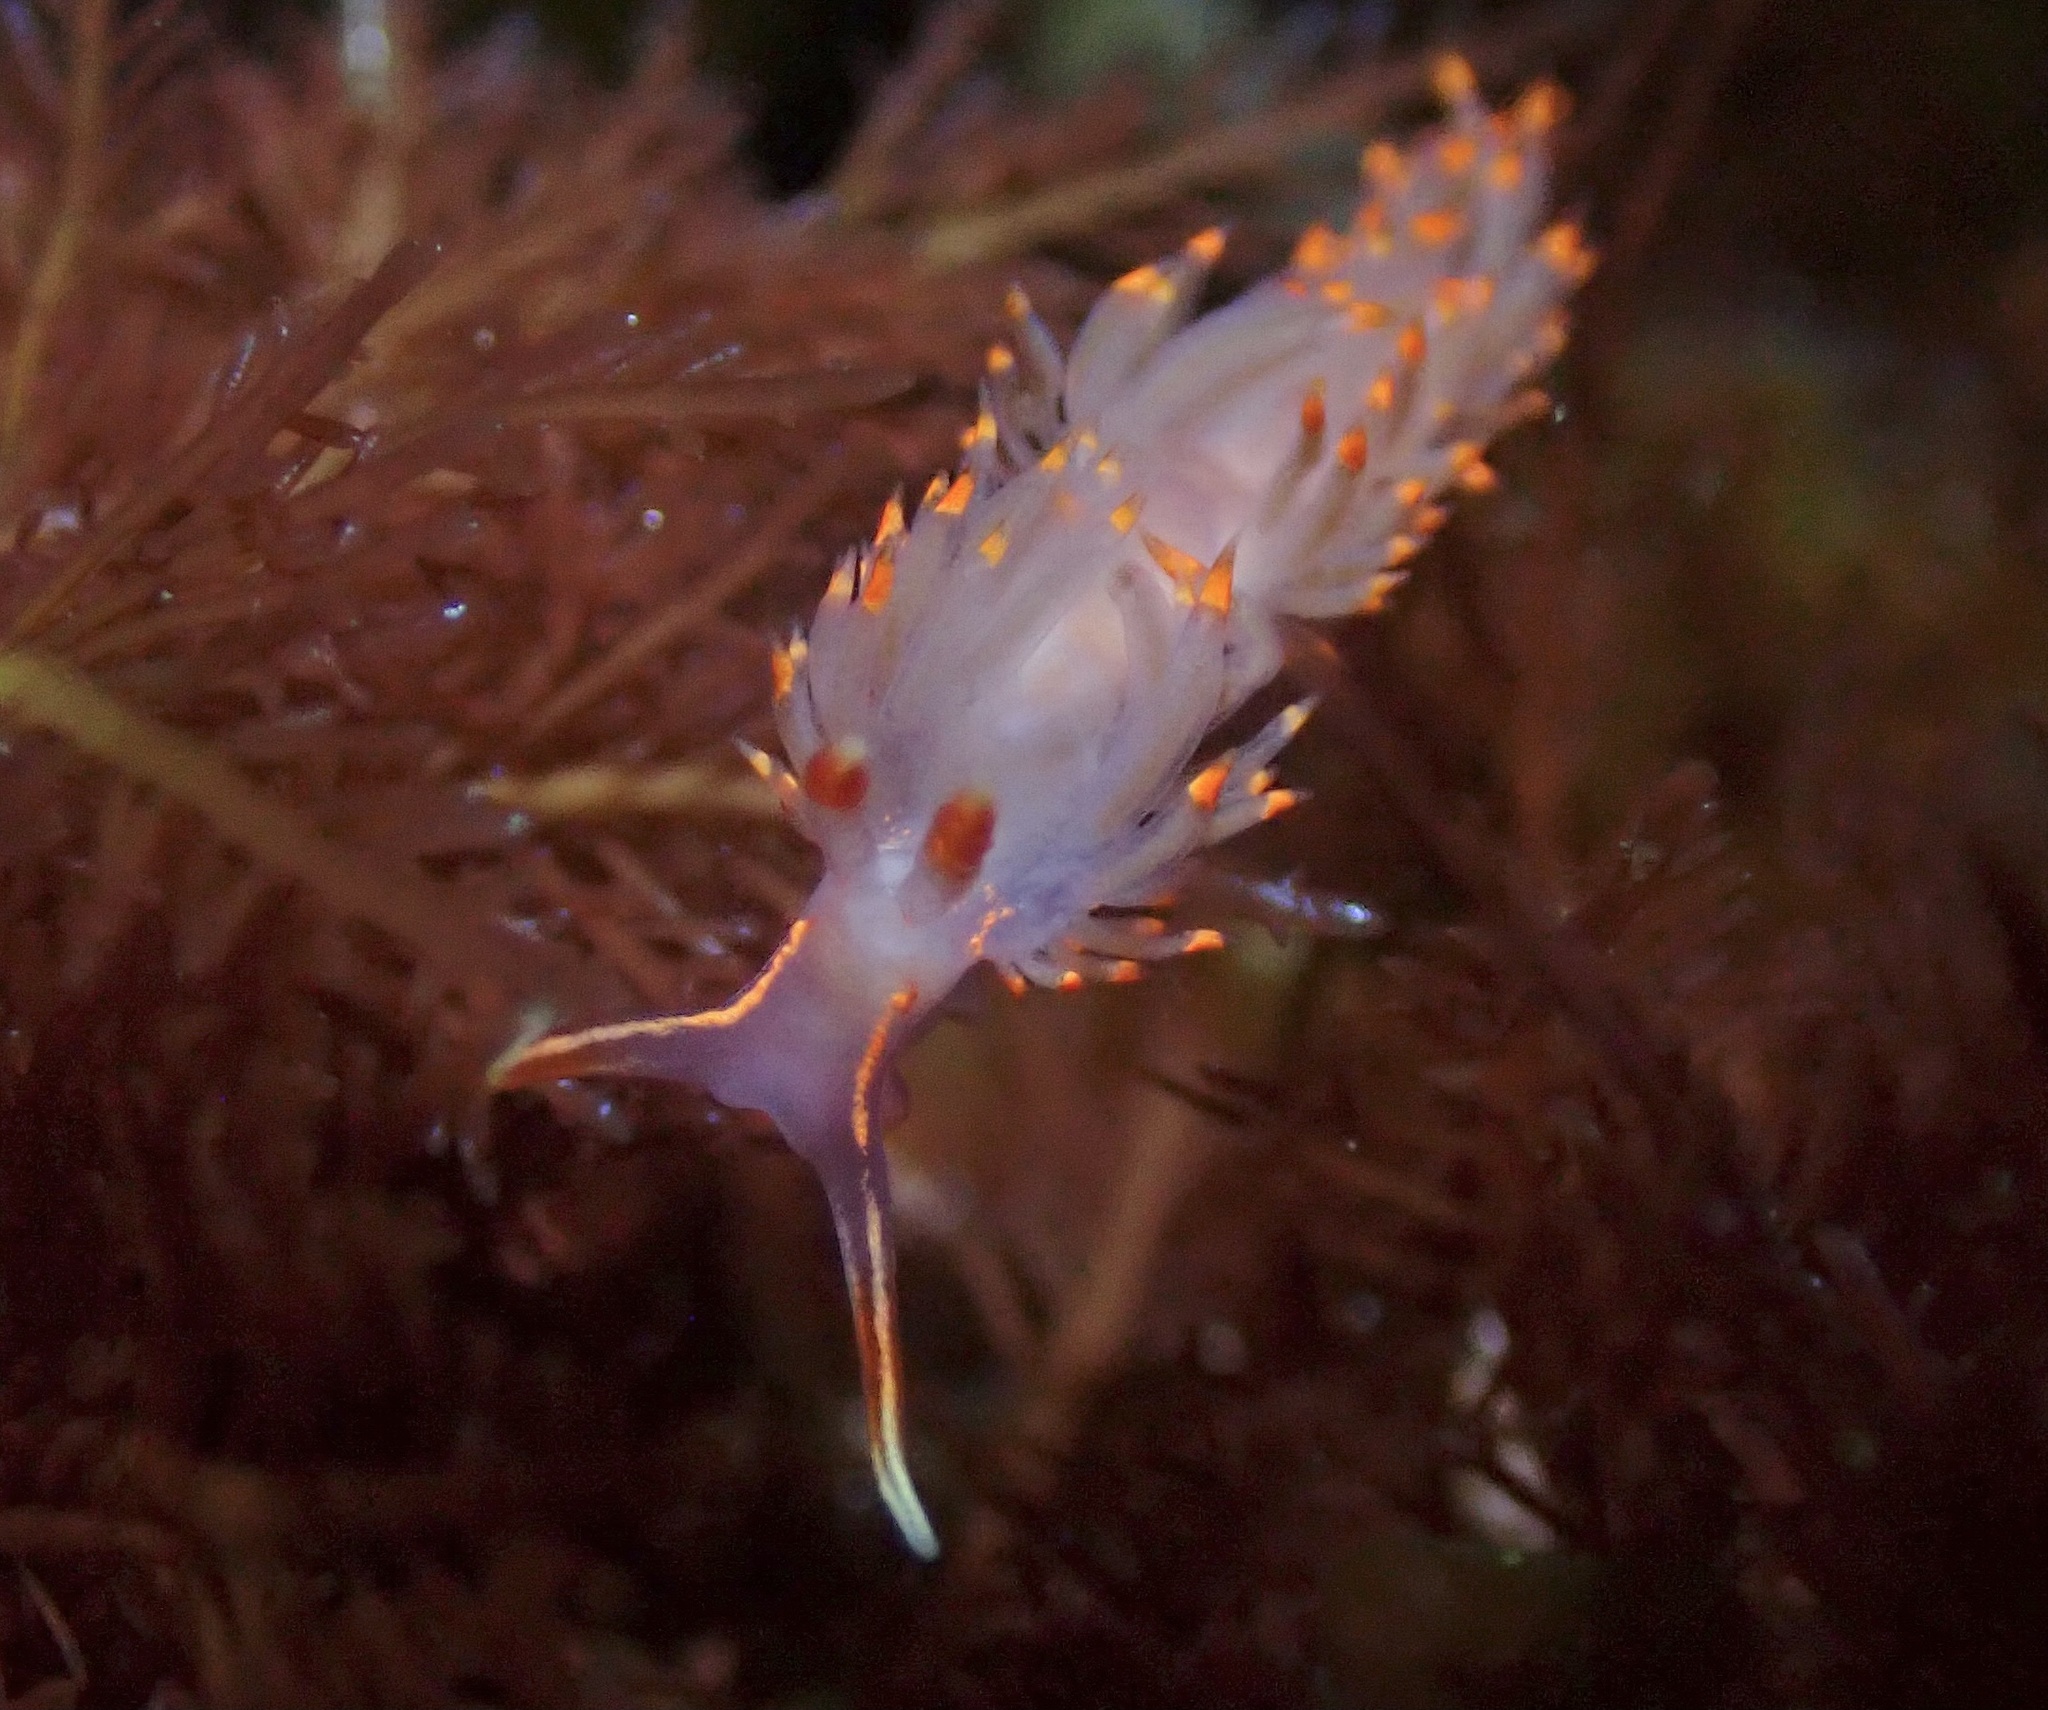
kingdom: Animalia
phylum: Mollusca
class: Gastropoda
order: Nudibranchia
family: Facelinidae
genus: Austraeolis
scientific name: Austraeolis stearnsi
